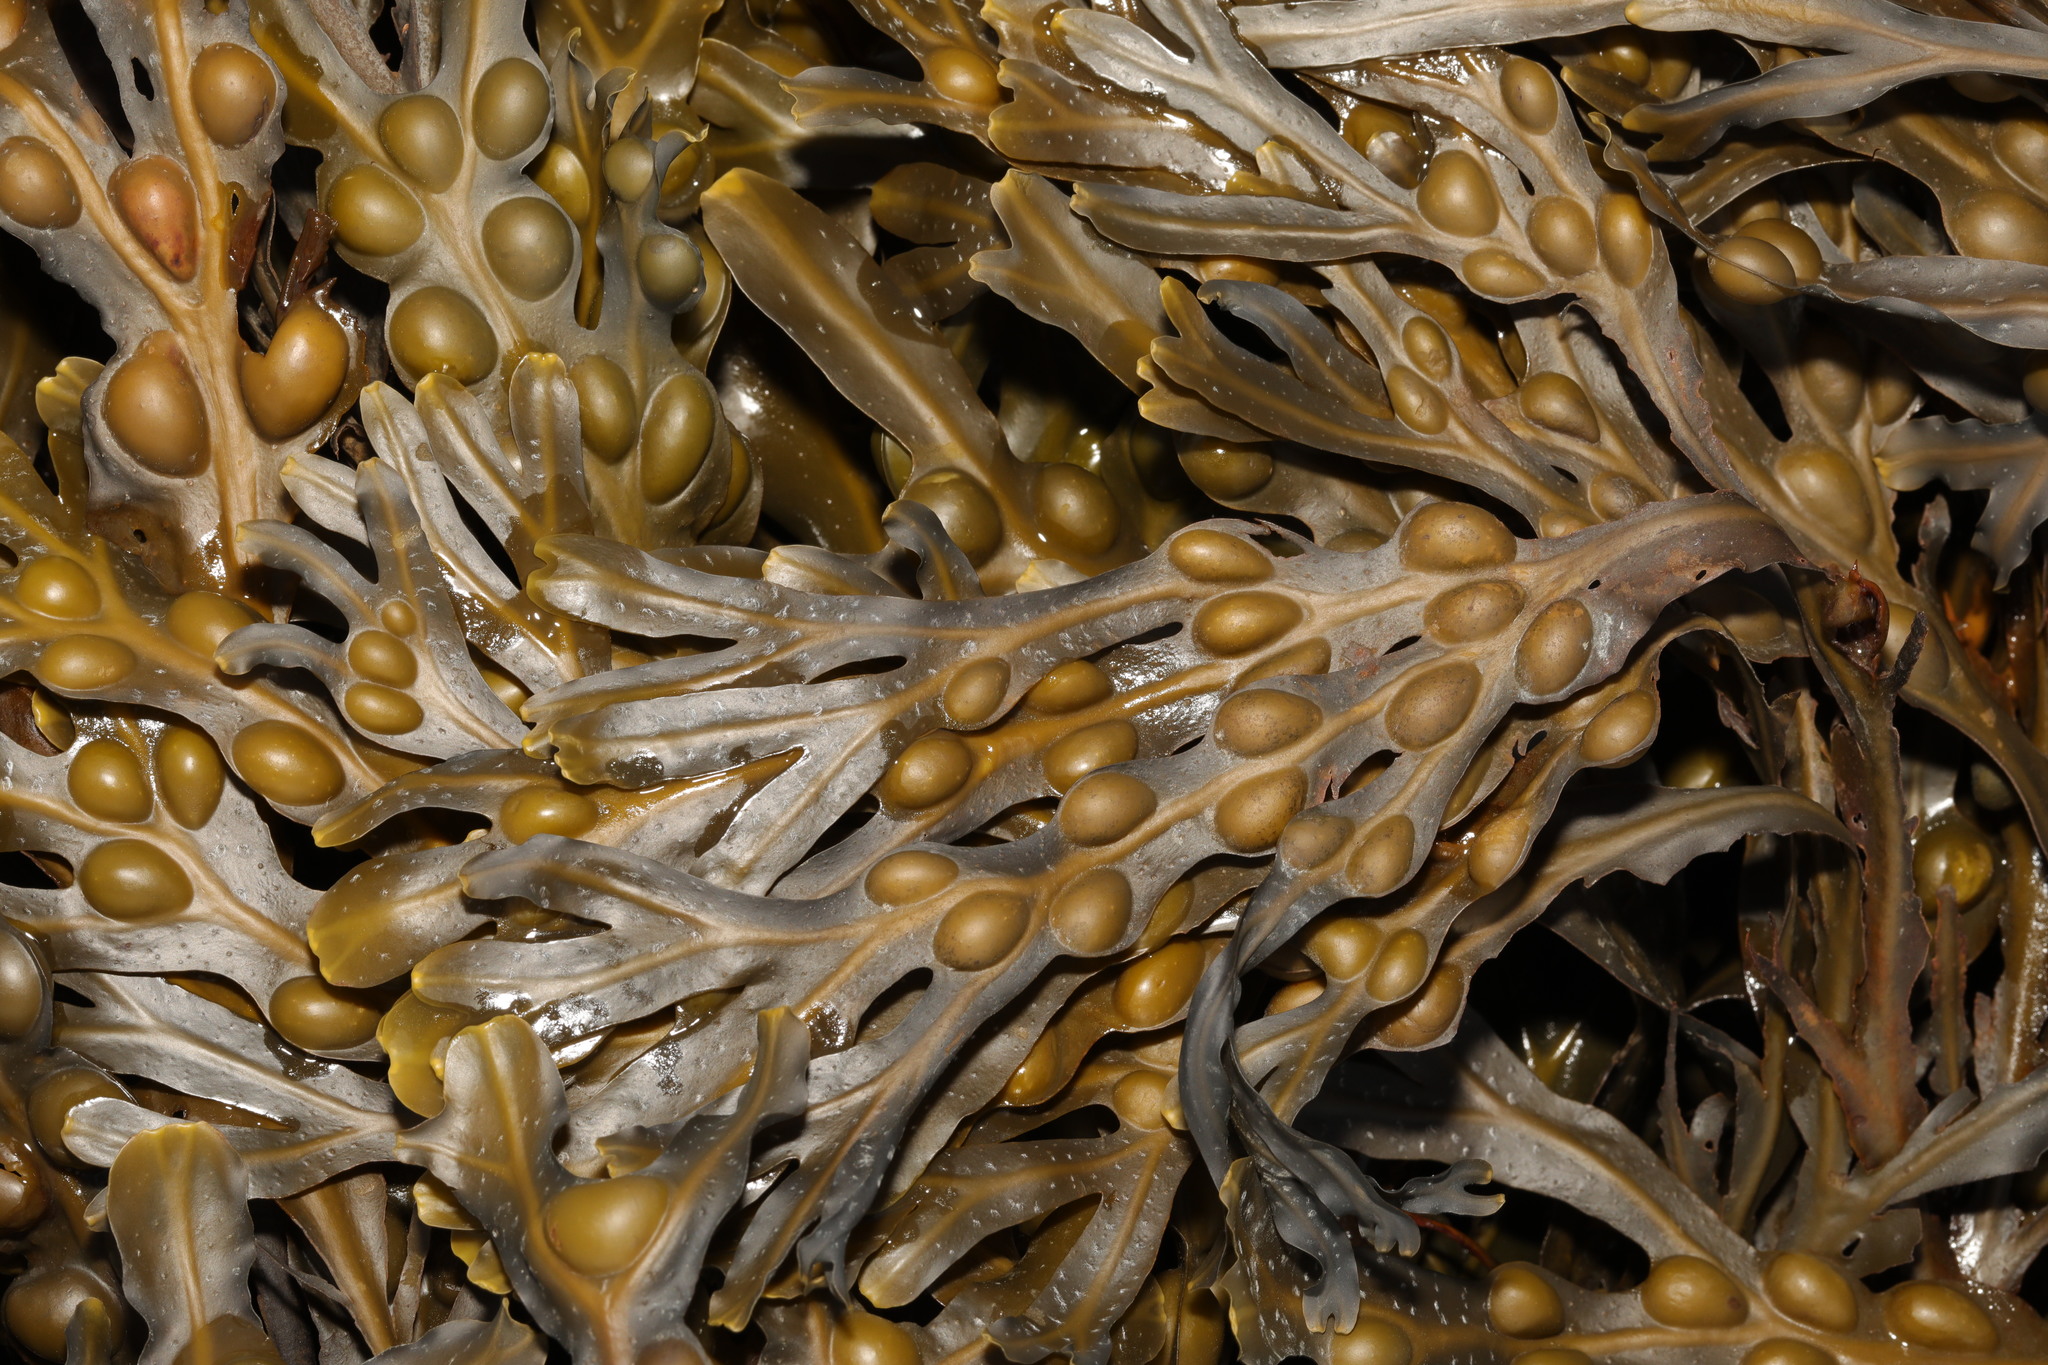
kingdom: Chromista
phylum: Ochrophyta
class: Phaeophyceae
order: Fucales
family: Fucaceae
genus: Fucus
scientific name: Fucus vesiculosus
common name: Bladder wrack
